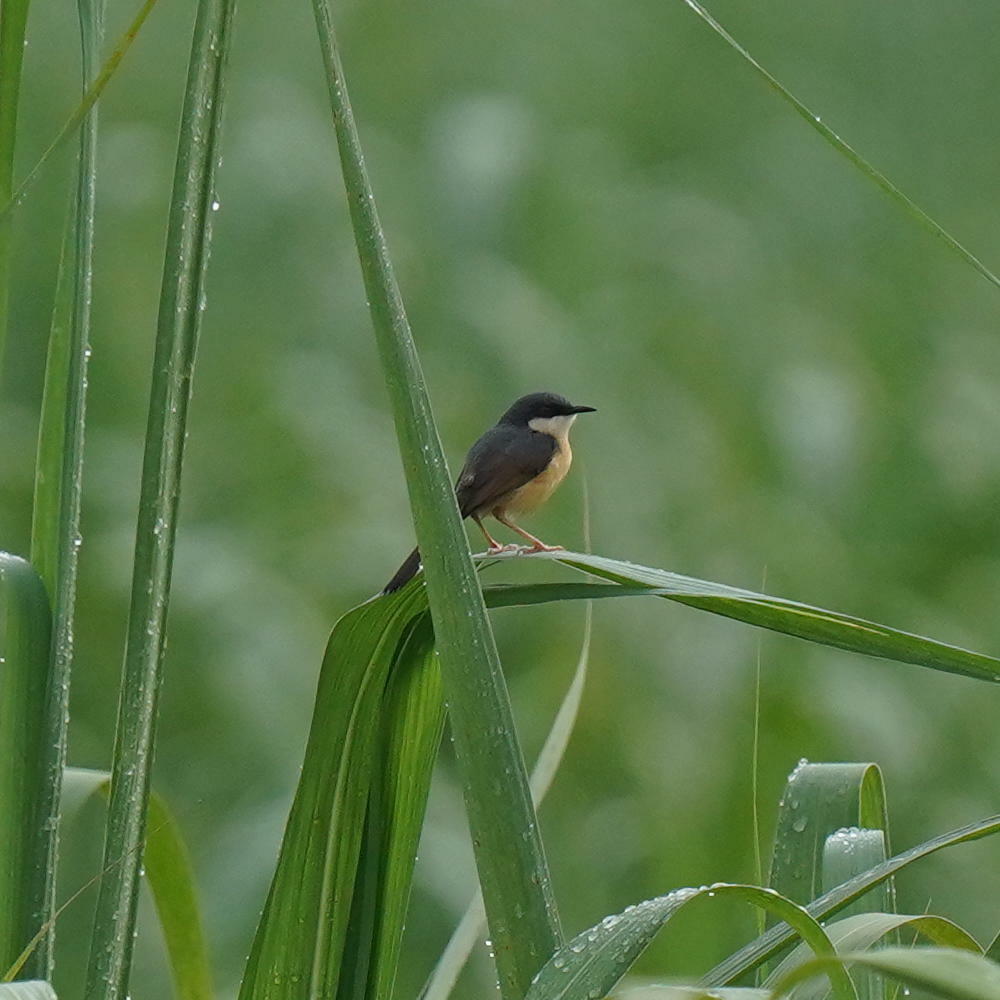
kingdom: Animalia
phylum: Chordata
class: Aves
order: Passeriformes
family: Cisticolidae
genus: Prinia
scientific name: Prinia socialis
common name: Ashy prinia
